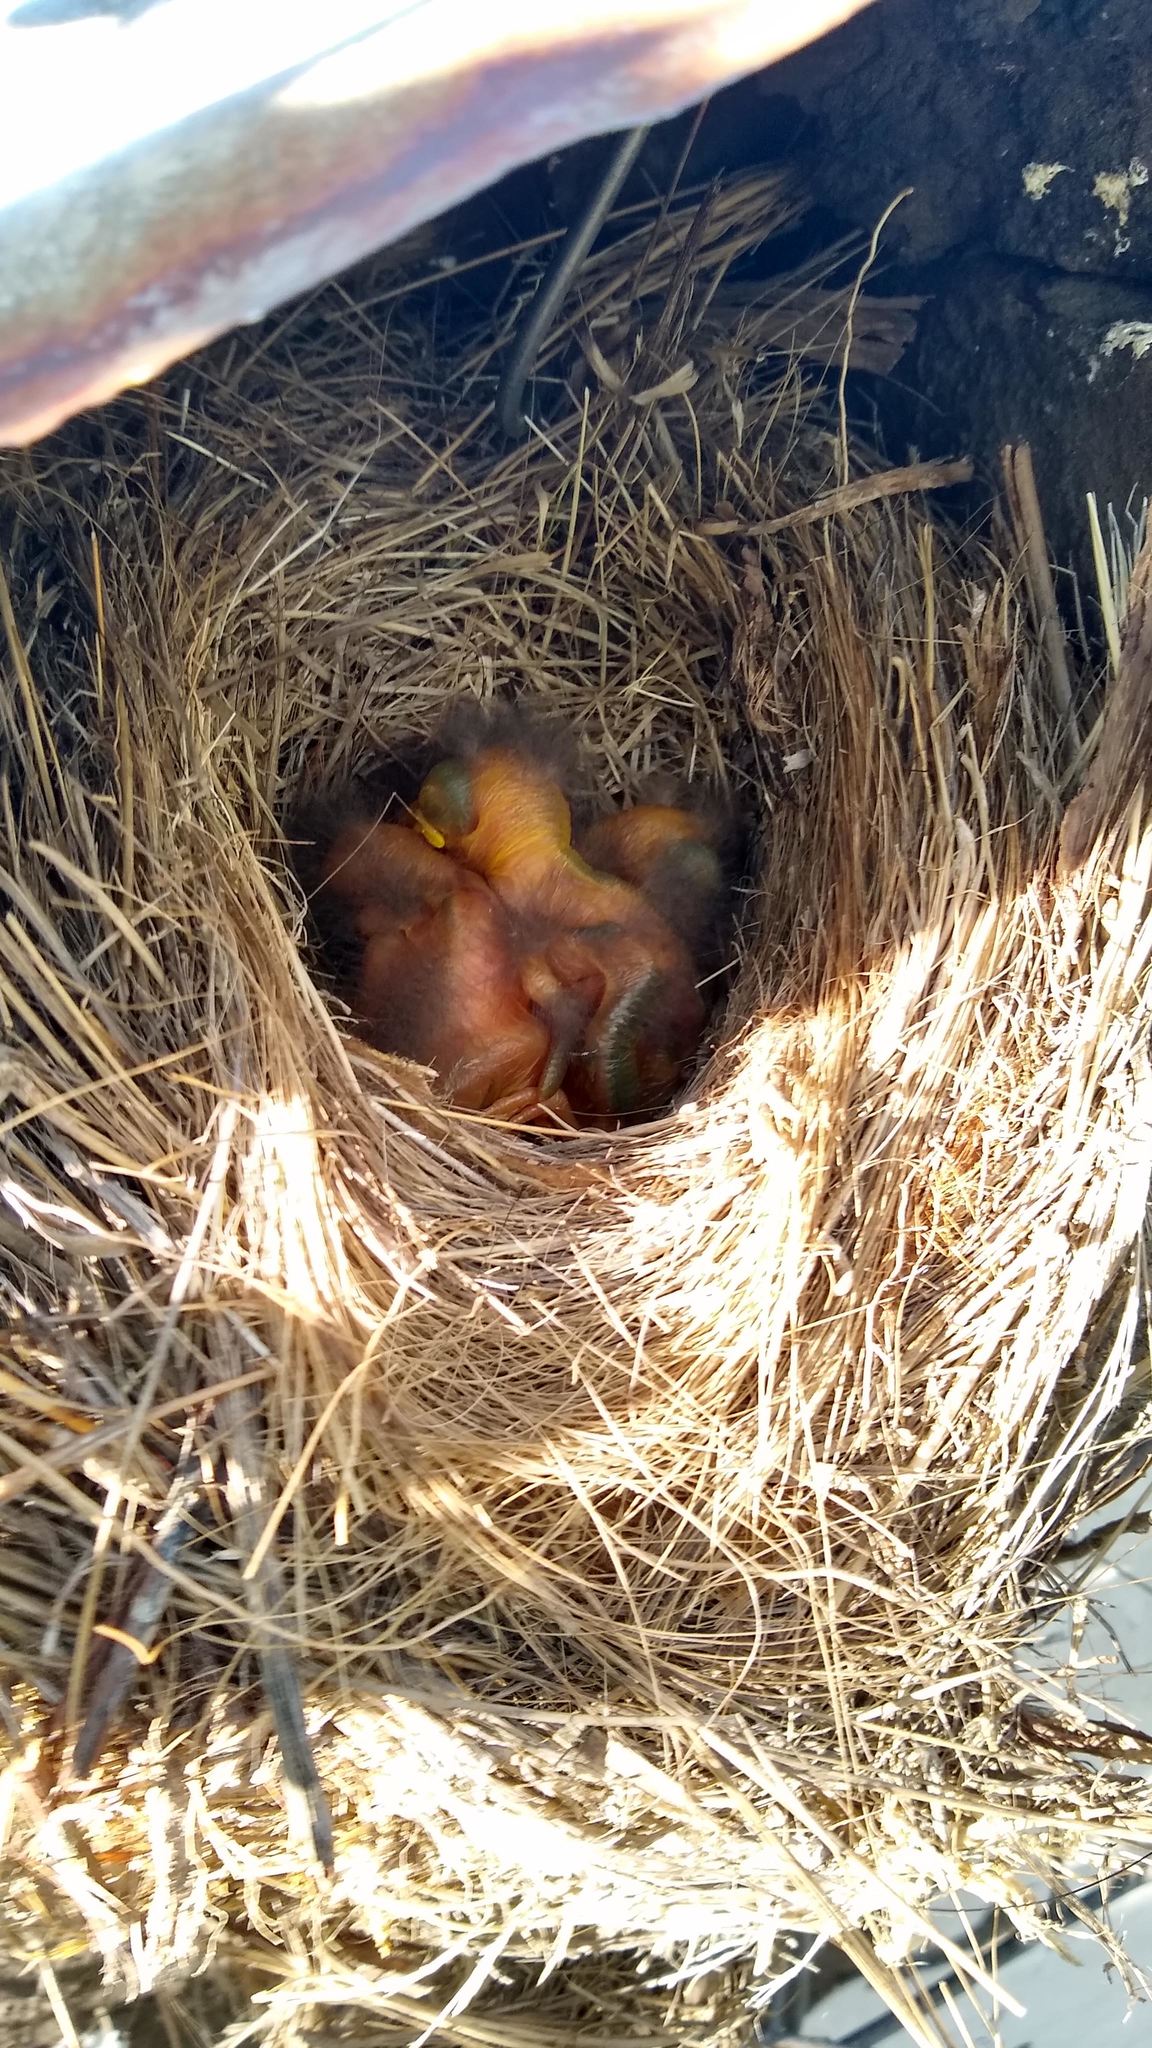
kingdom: Animalia
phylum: Chordata
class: Aves
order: Passeriformes
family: Tyrannidae
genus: Elaenia
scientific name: Elaenia albiceps
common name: White-crested elaenia
